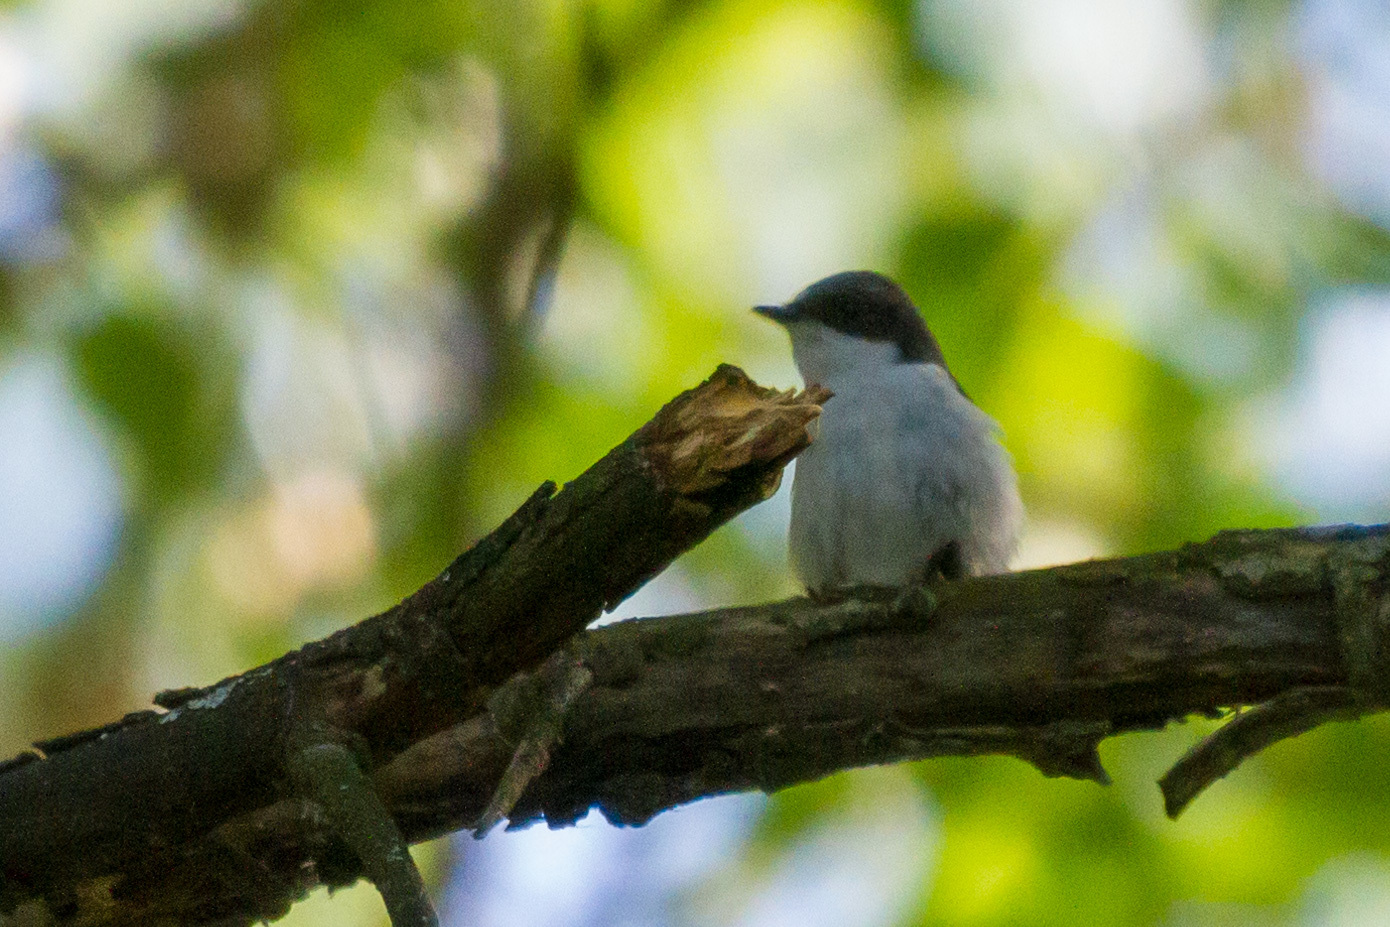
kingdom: Animalia
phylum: Chordata
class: Aves
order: Passeriformes
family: Muscicapidae
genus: Ficedula
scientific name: Ficedula hypoleuca
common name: European pied flycatcher
